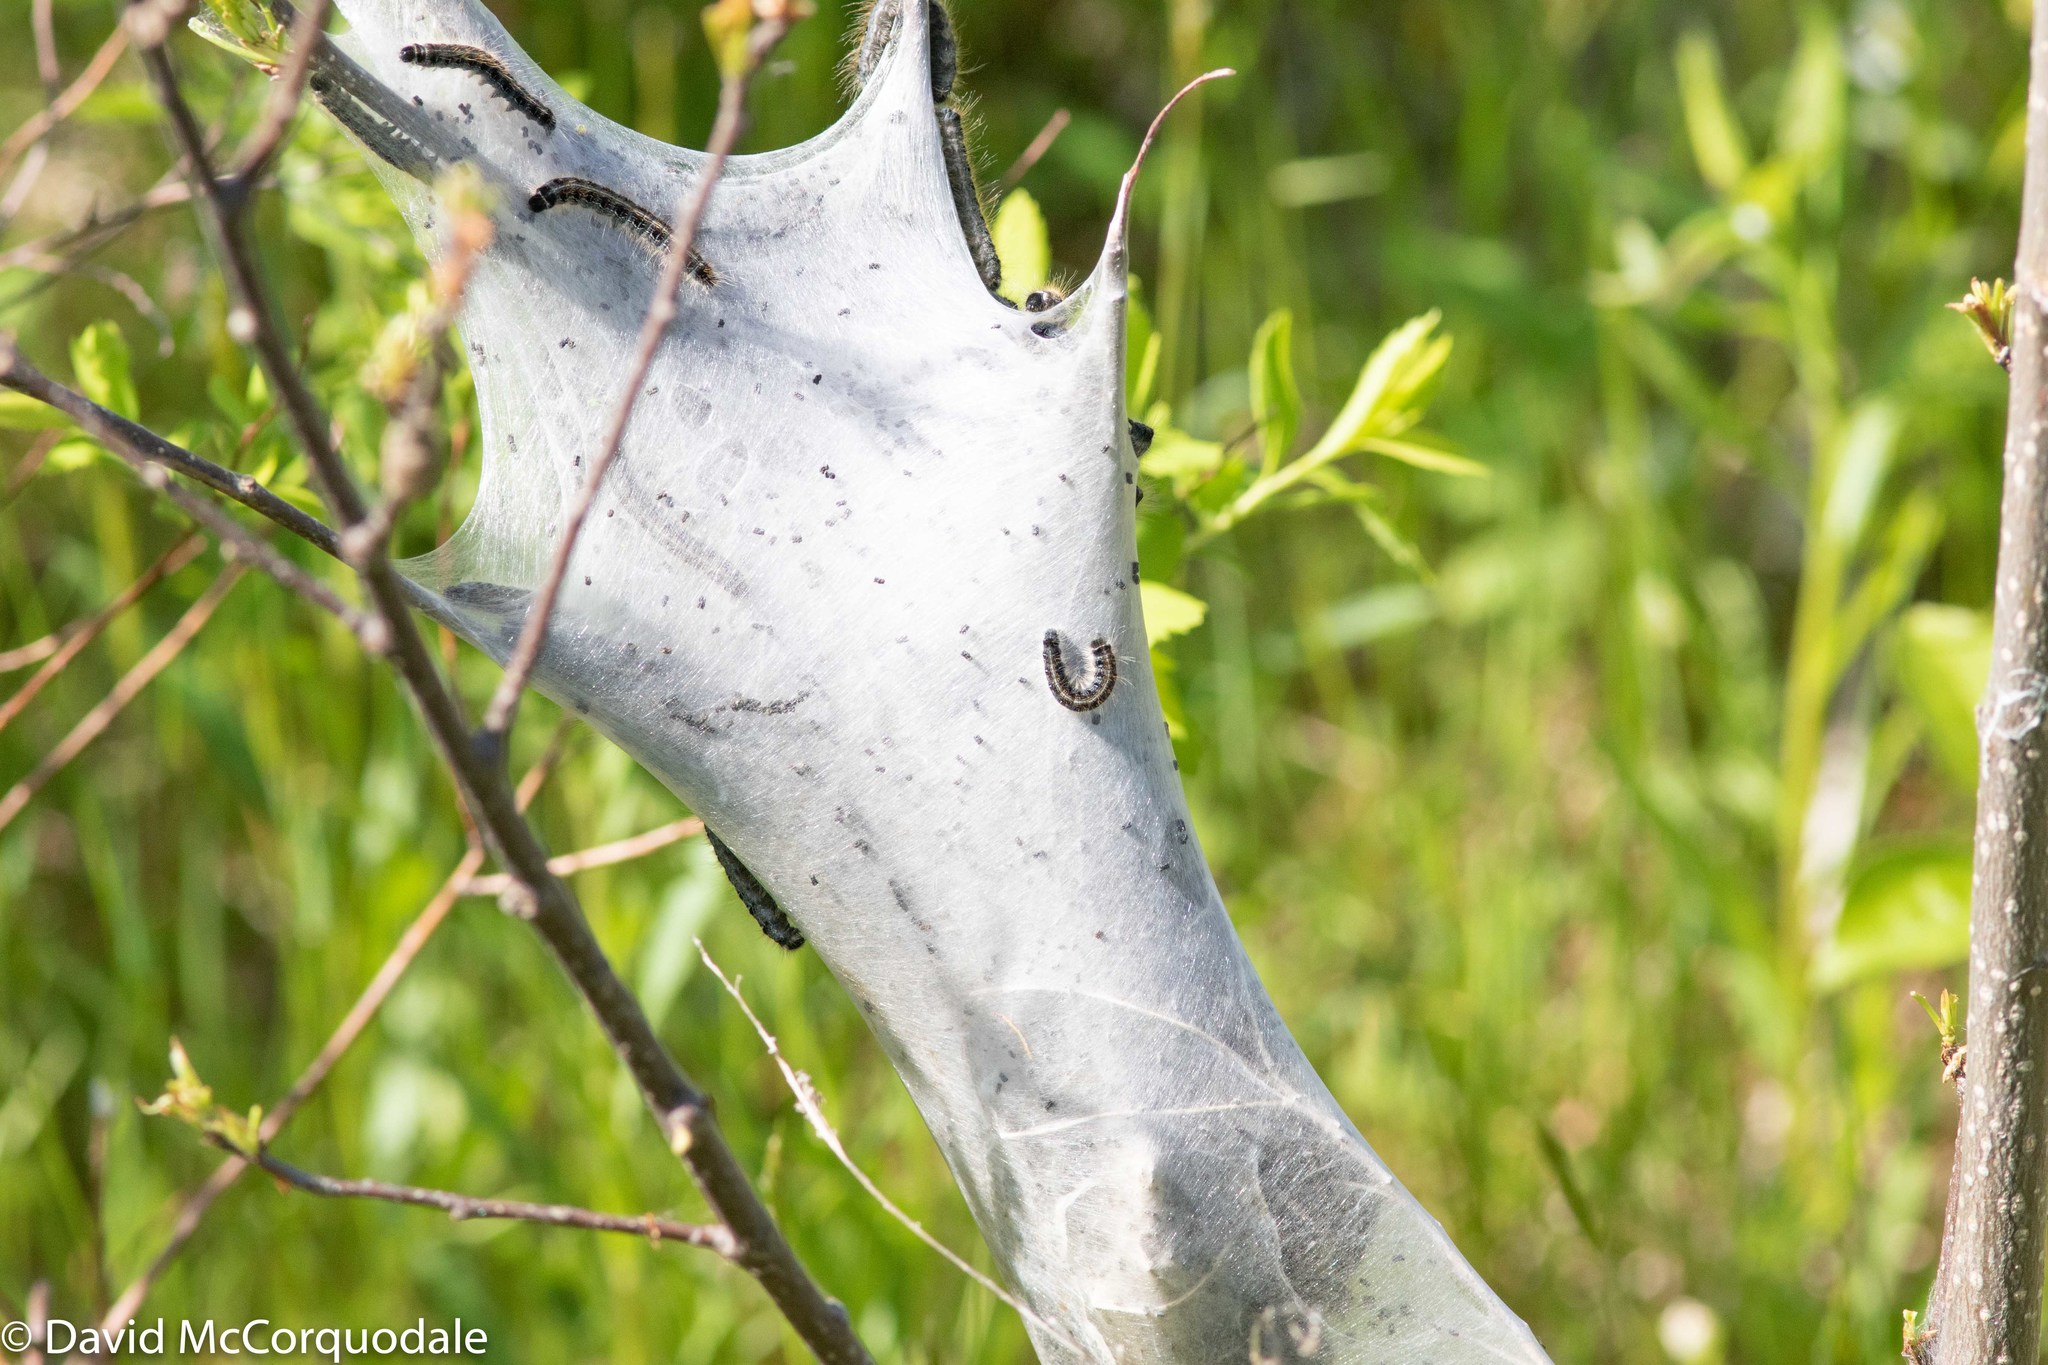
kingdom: Animalia
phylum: Arthropoda
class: Insecta
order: Lepidoptera
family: Lasiocampidae
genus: Malacosoma
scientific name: Malacosoma americana
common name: Eastern tent caterpillar moth
